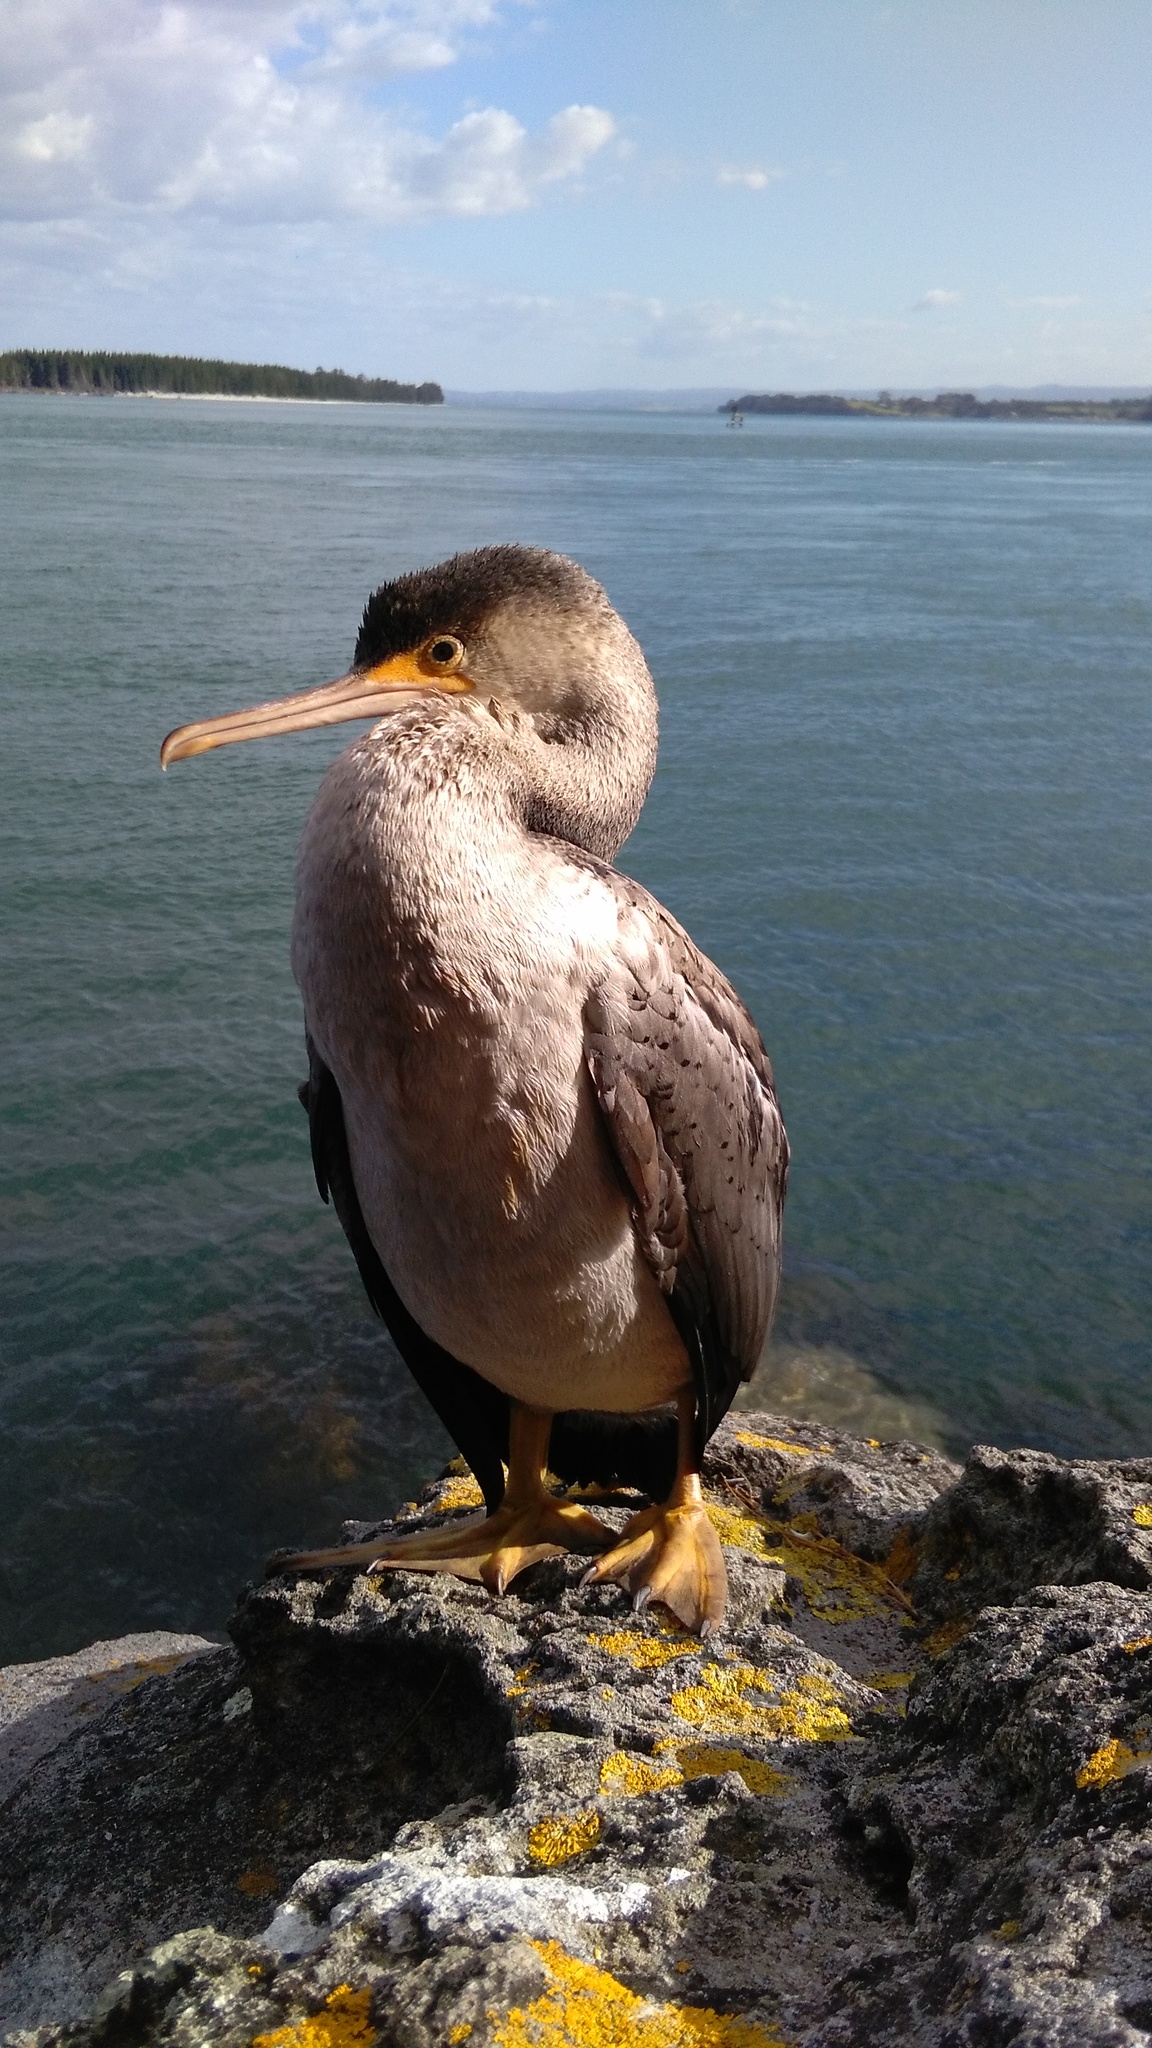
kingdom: Animalia
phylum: Chordata
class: Aves
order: Suliformes
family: Phalacrocoracidae
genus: Phalacrocorax
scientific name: Phalacrocorax punctatus
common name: Spotted shag
